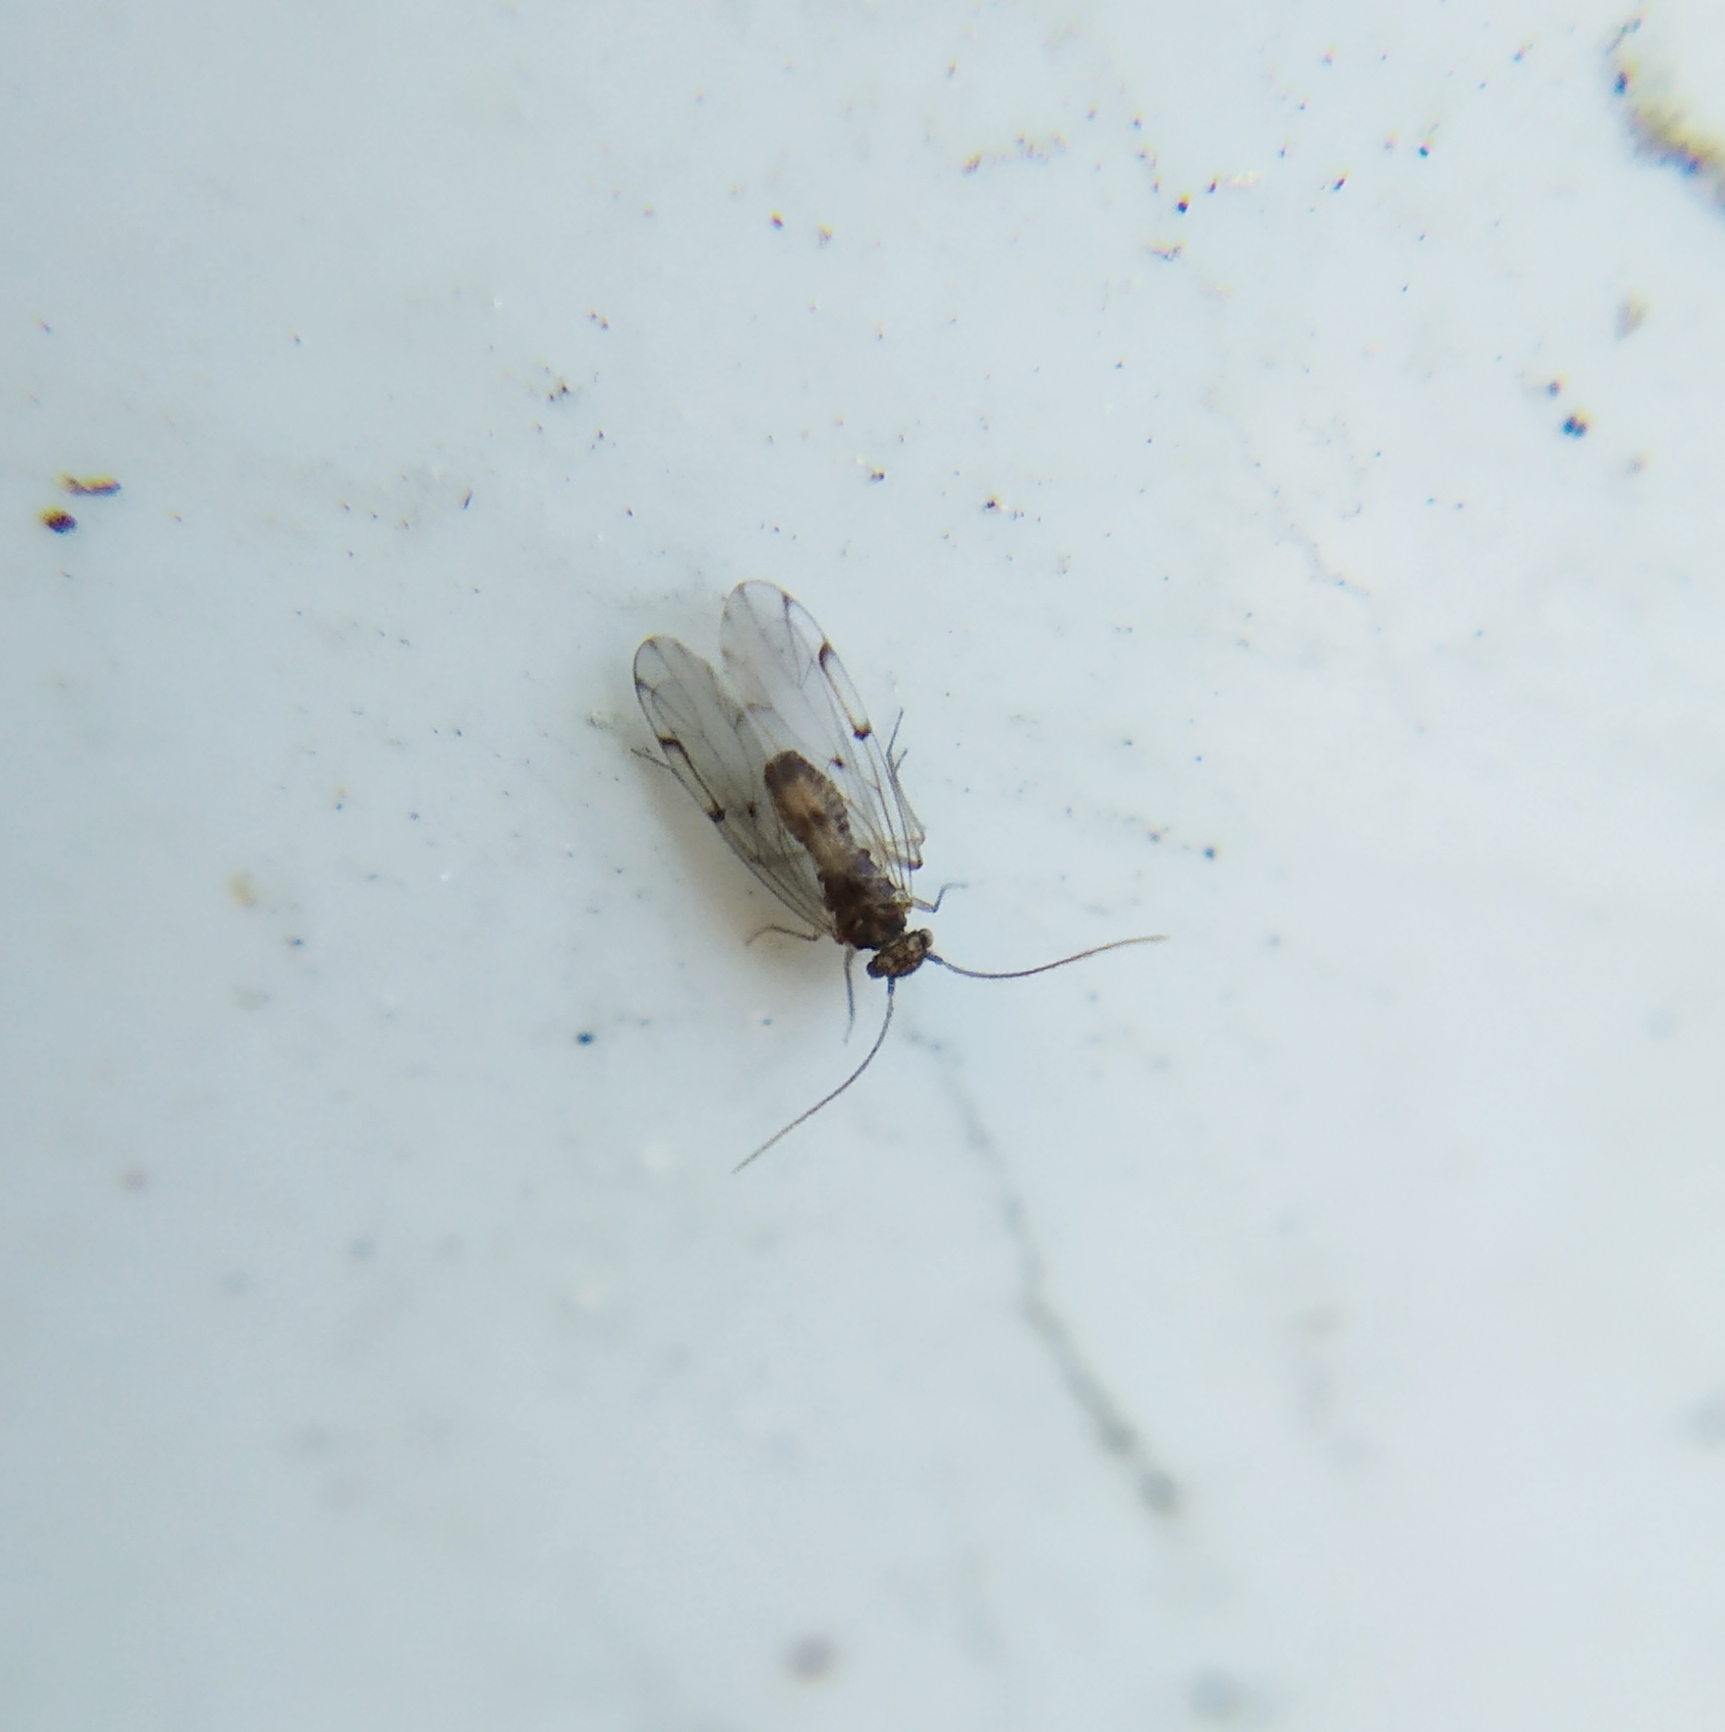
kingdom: Animalia
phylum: Arthropoda
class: Insecta
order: Psocodea
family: Ectopsocidae
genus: Ectopsocus
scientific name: Ectopsocus petersi
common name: Medium-sized bark louse
